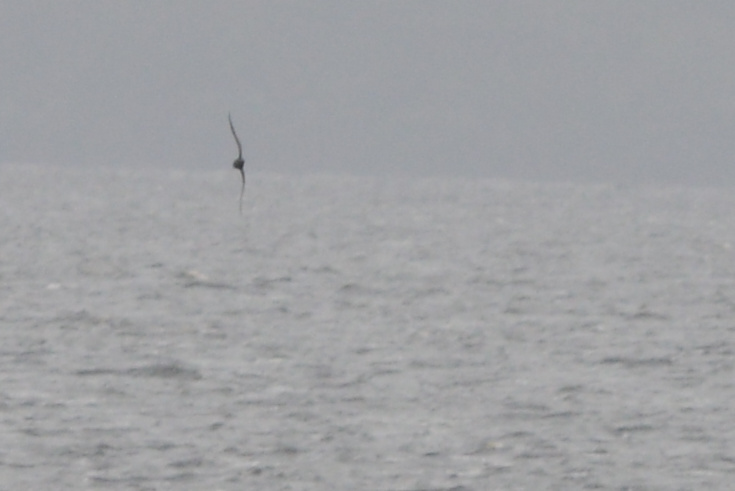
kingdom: Animalia
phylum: Chordata
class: Aves
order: Procellariiformes
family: Procellariidae
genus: Puffinus
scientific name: Puffinus griseus
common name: Sooty shearwater
